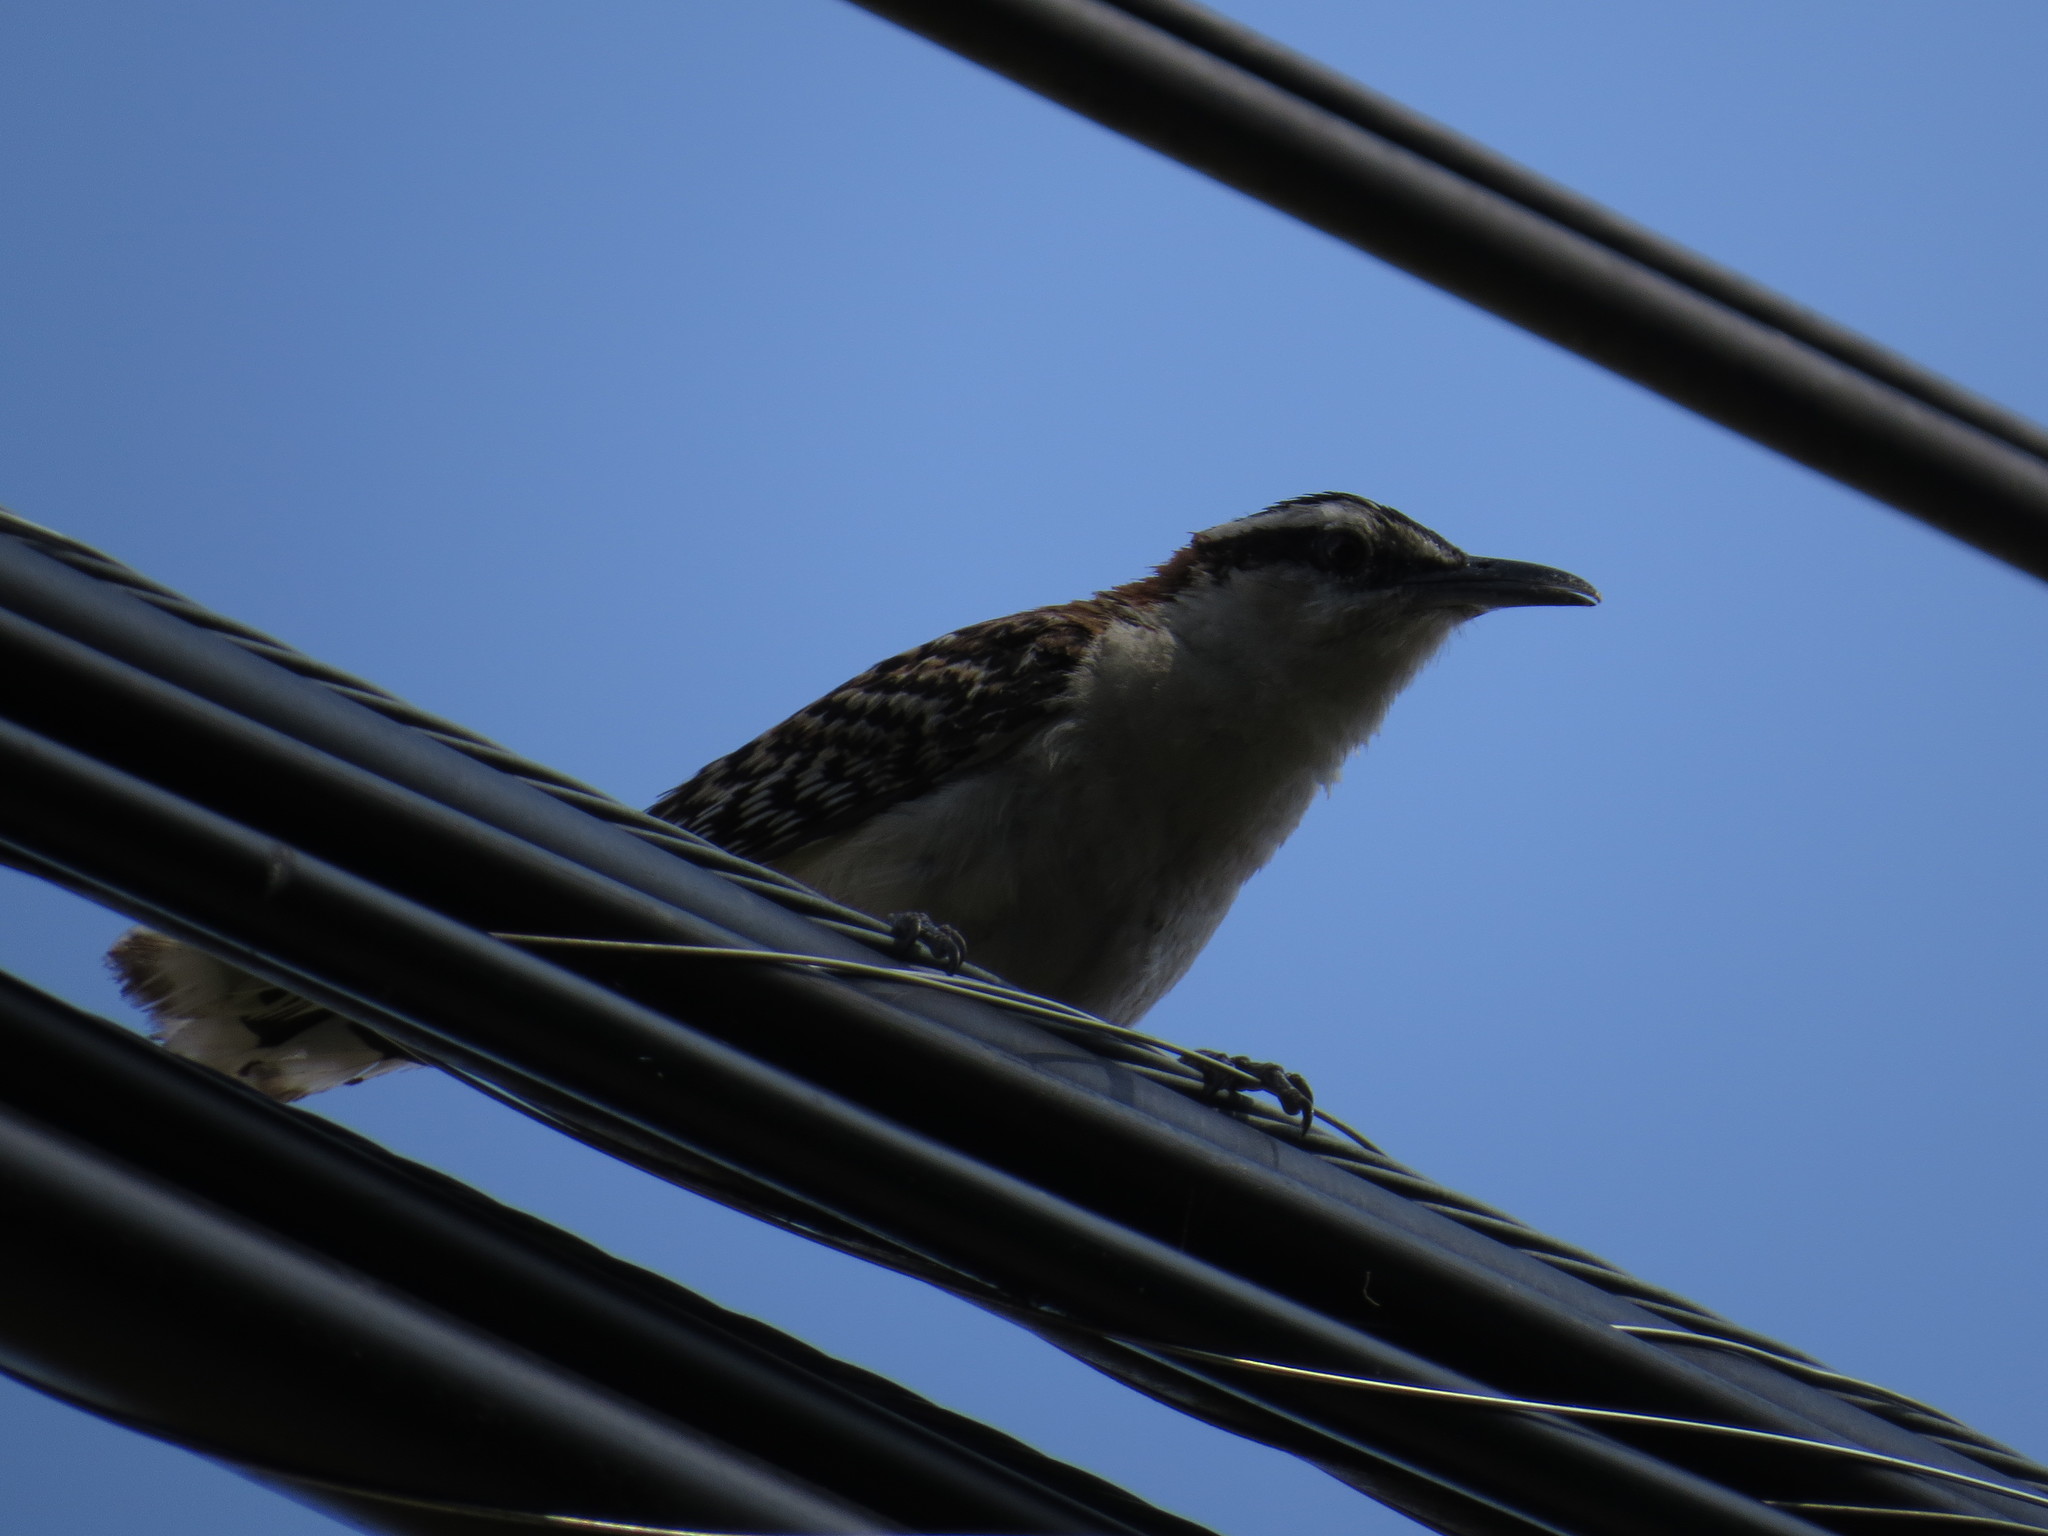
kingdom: Animalia
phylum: Chordata
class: Aves
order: Passeriformes
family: Troglodytidae
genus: Campylorhynchus
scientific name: Campylorhynchus rufinucha
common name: Rufous-naped wren
